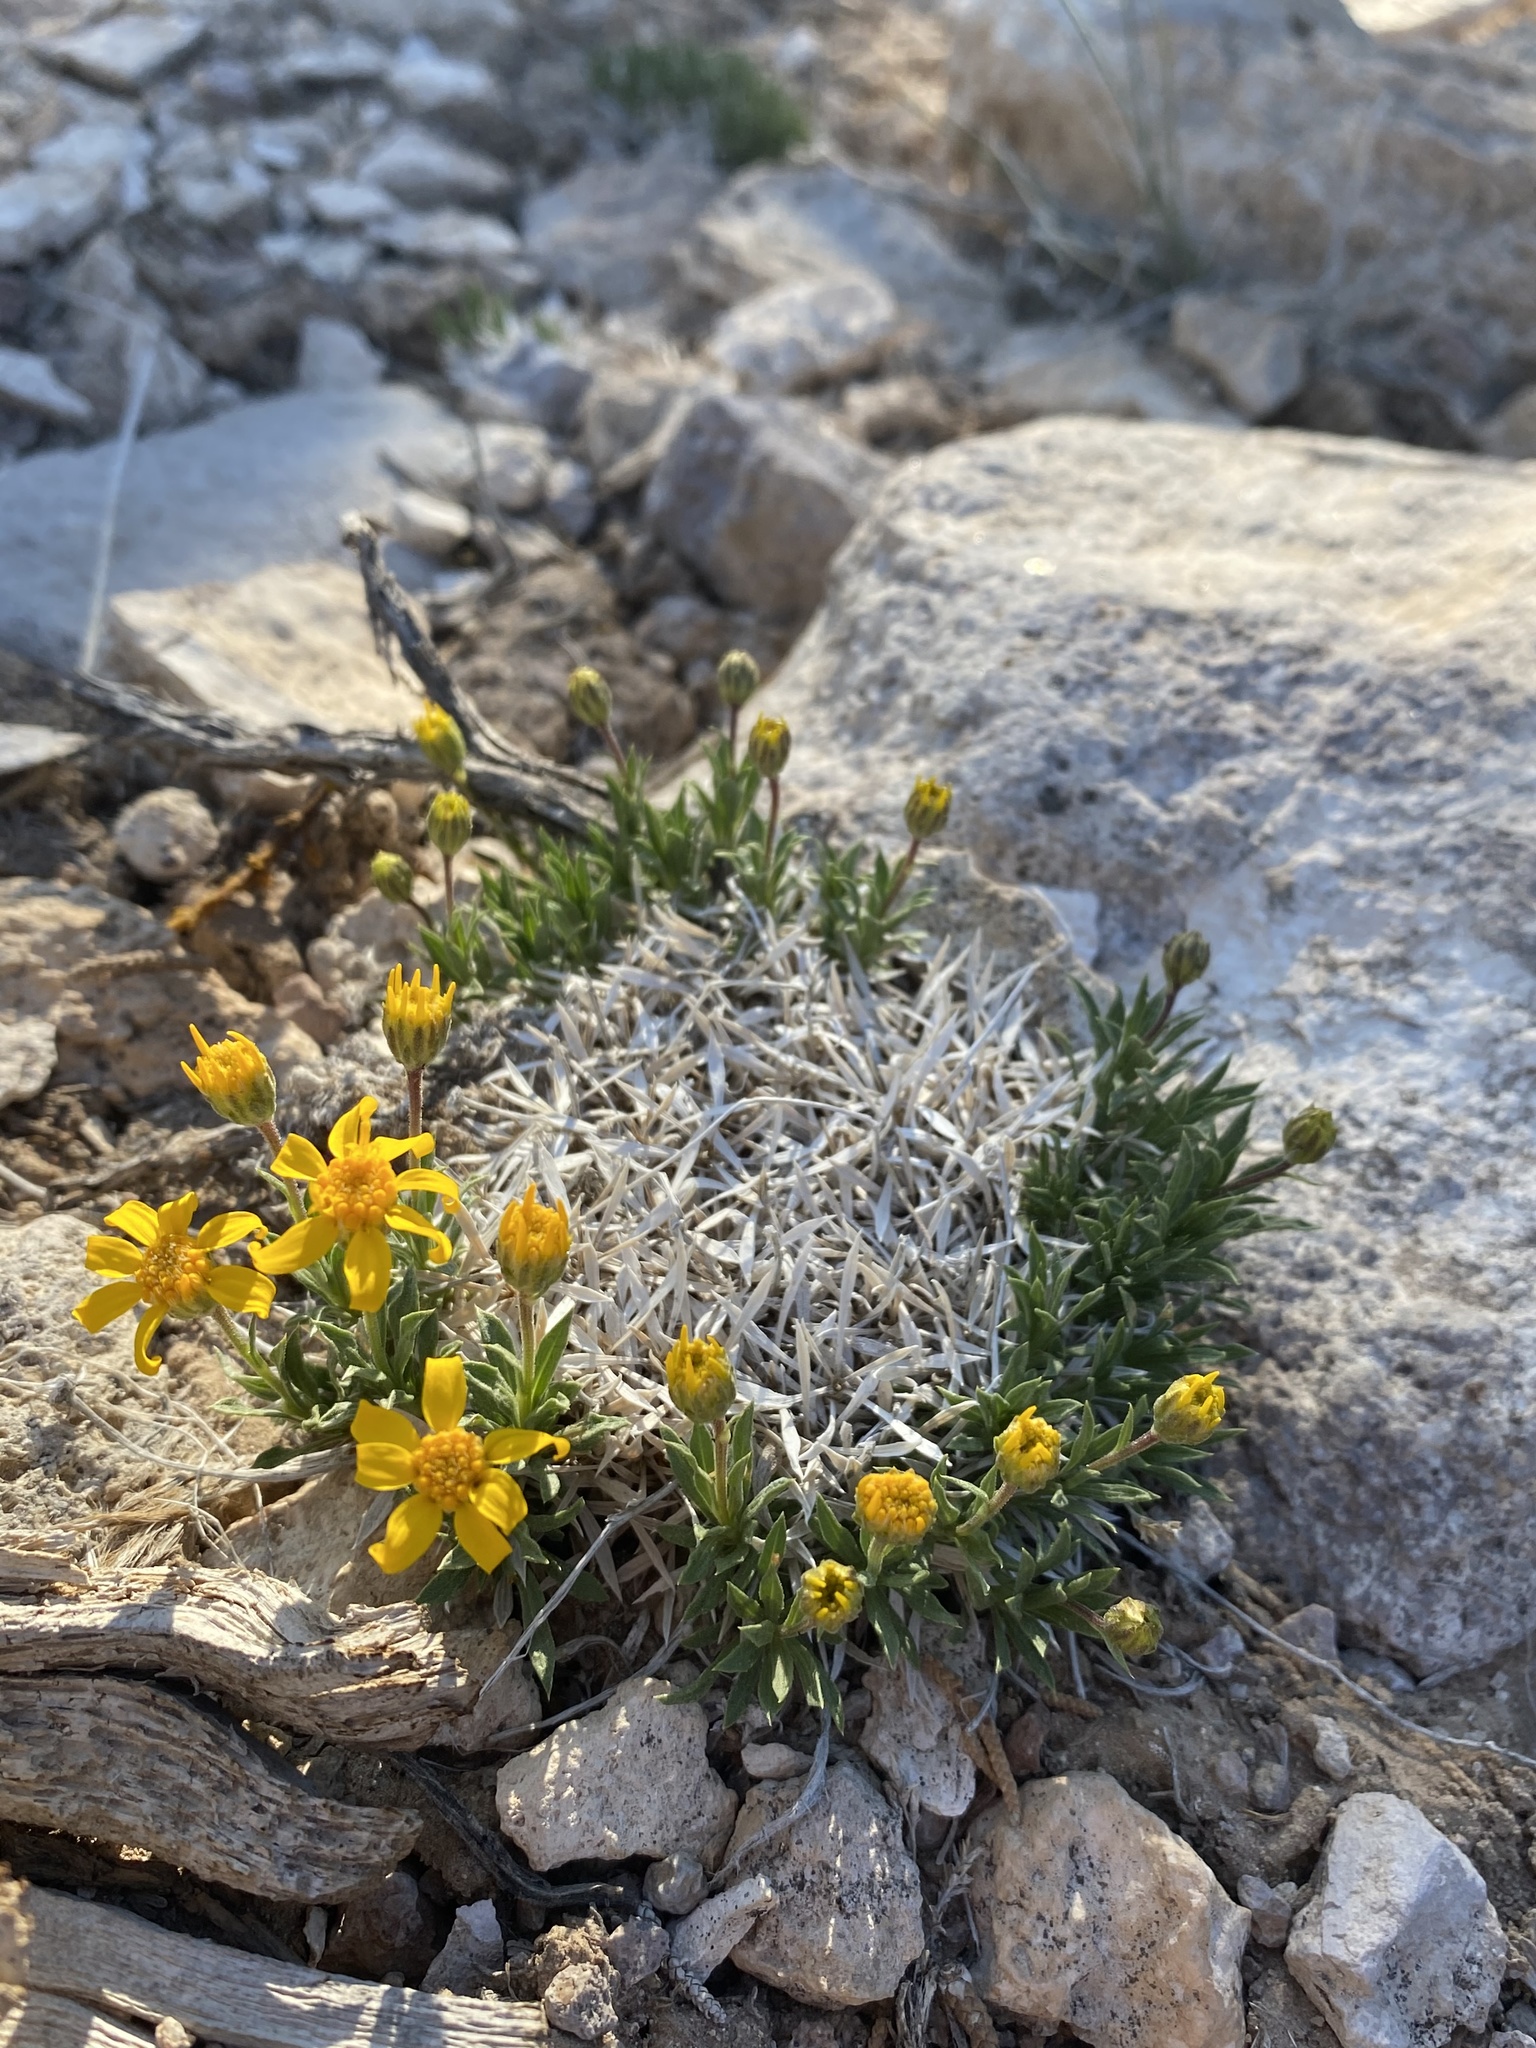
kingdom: Plantae
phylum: Tracheophyta
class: Magnoliopsida
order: Asterales
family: Asteraceae
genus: Stenotus
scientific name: Stenotus acaulis
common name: Stemless goldenweed
